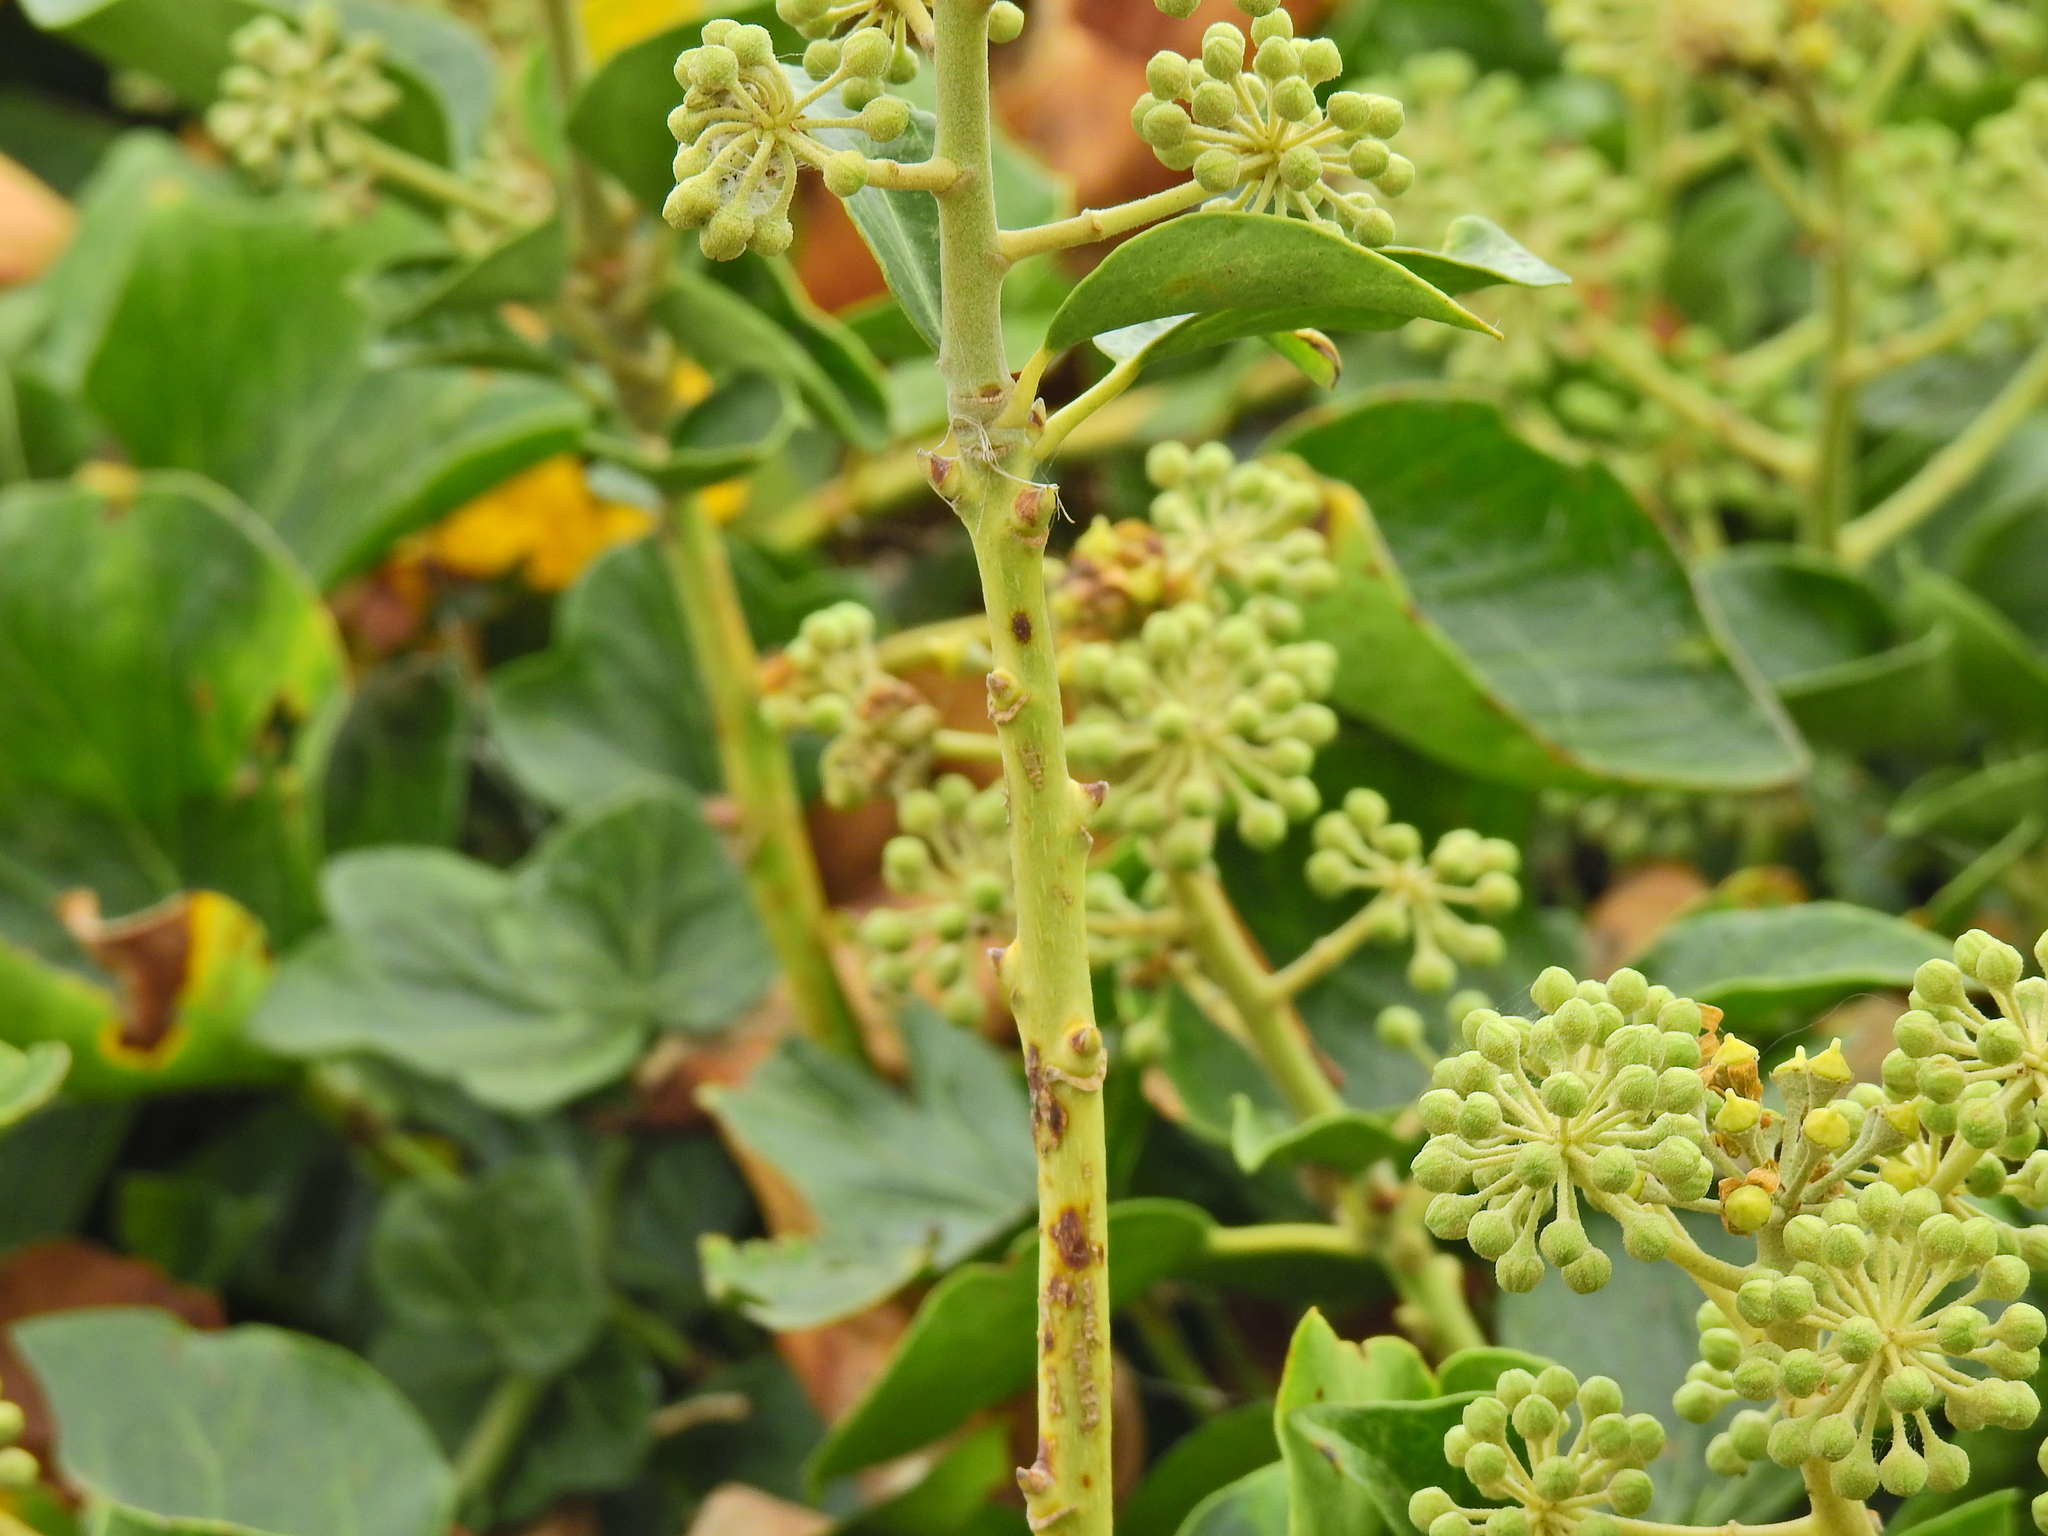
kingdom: Plantae
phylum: Tracheophyta
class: Magnoliopsida
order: Apiales
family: Araliaceae
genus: Hedera
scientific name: Hedera helix
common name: Ivy
